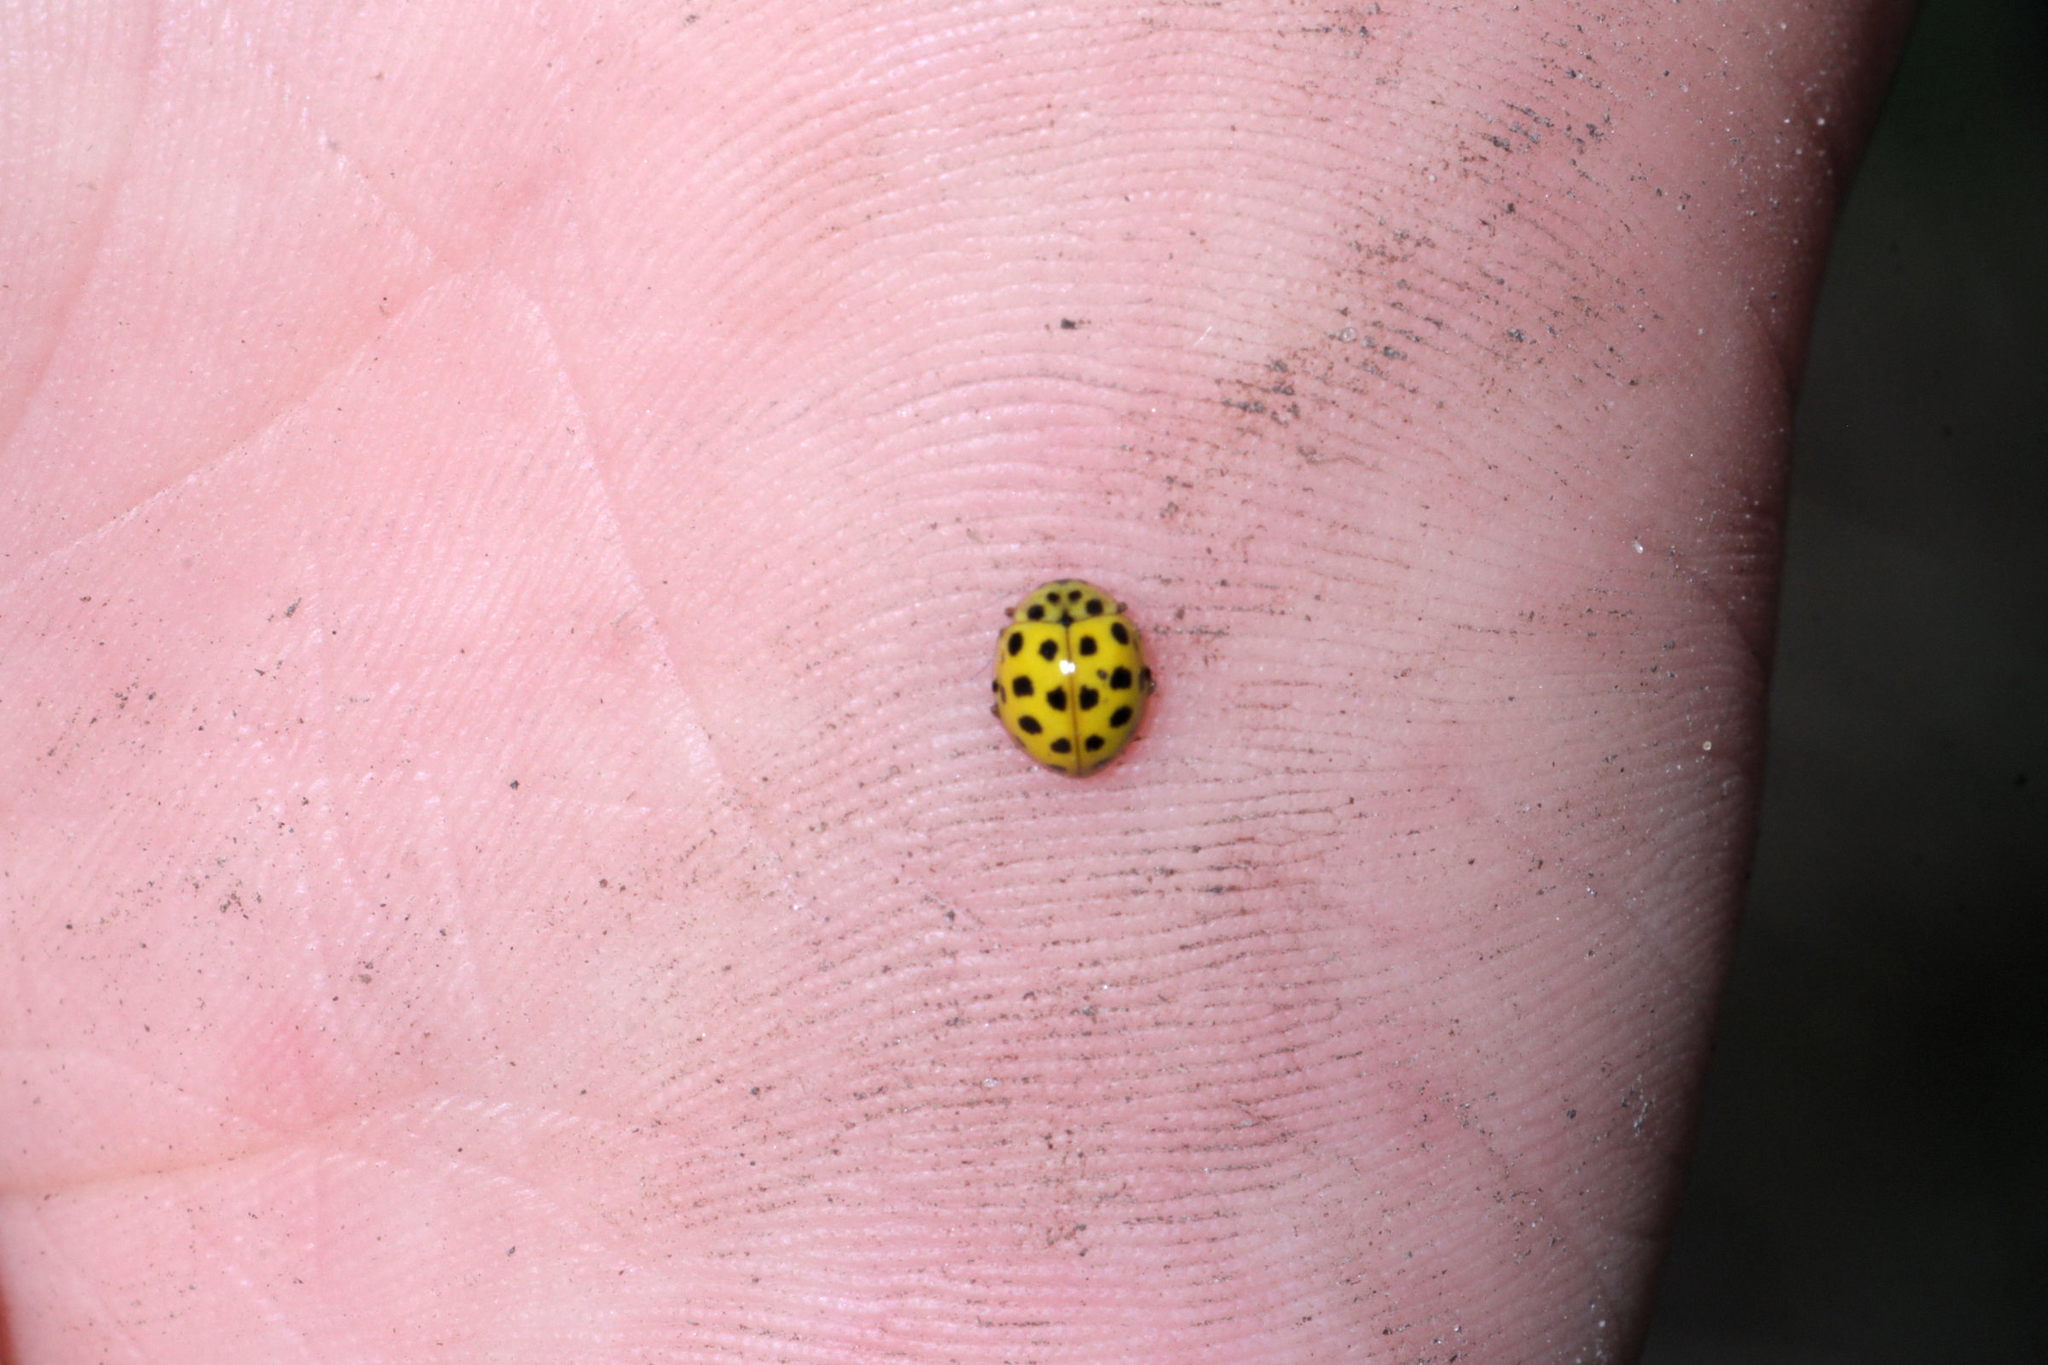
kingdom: Animalia
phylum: Arthropoda
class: Insecta
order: Coleoptera
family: Coccinellidae
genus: Psyllobora
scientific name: Psyllobora vigintiduopunctata
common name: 22-spot ladybird
